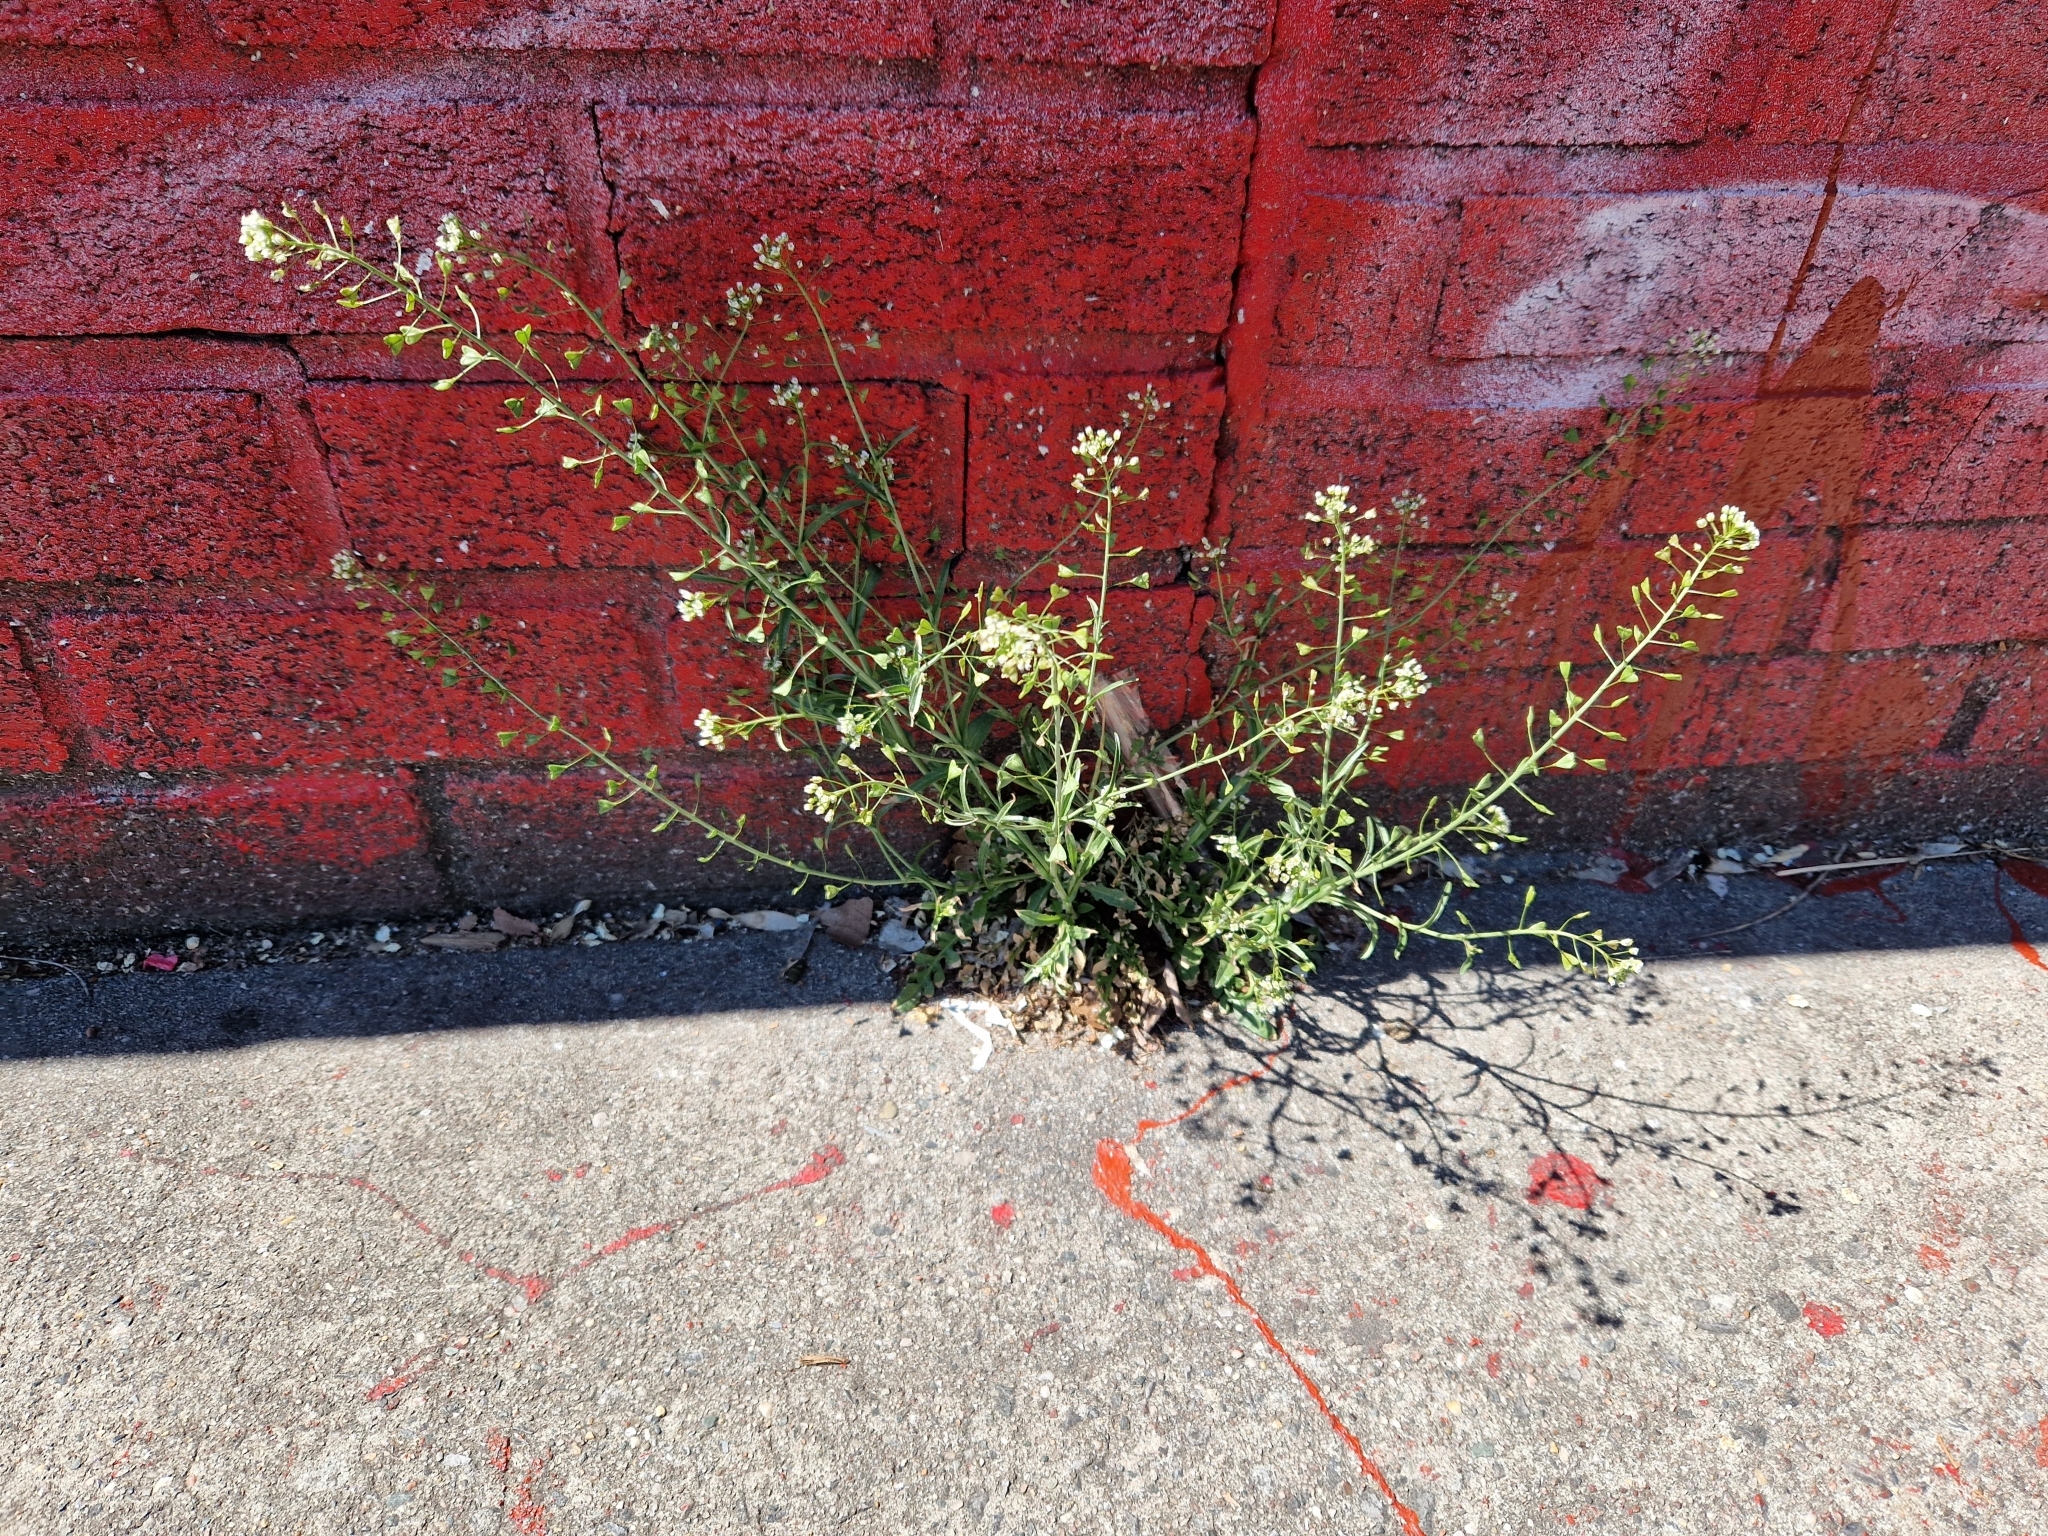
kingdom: Plantae
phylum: Tracheophyta
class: Magnoliopsida
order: Brassicales
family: Brassicaceae
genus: Capsella
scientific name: Capsella bursa-pastoris
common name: Shepherd's purse
